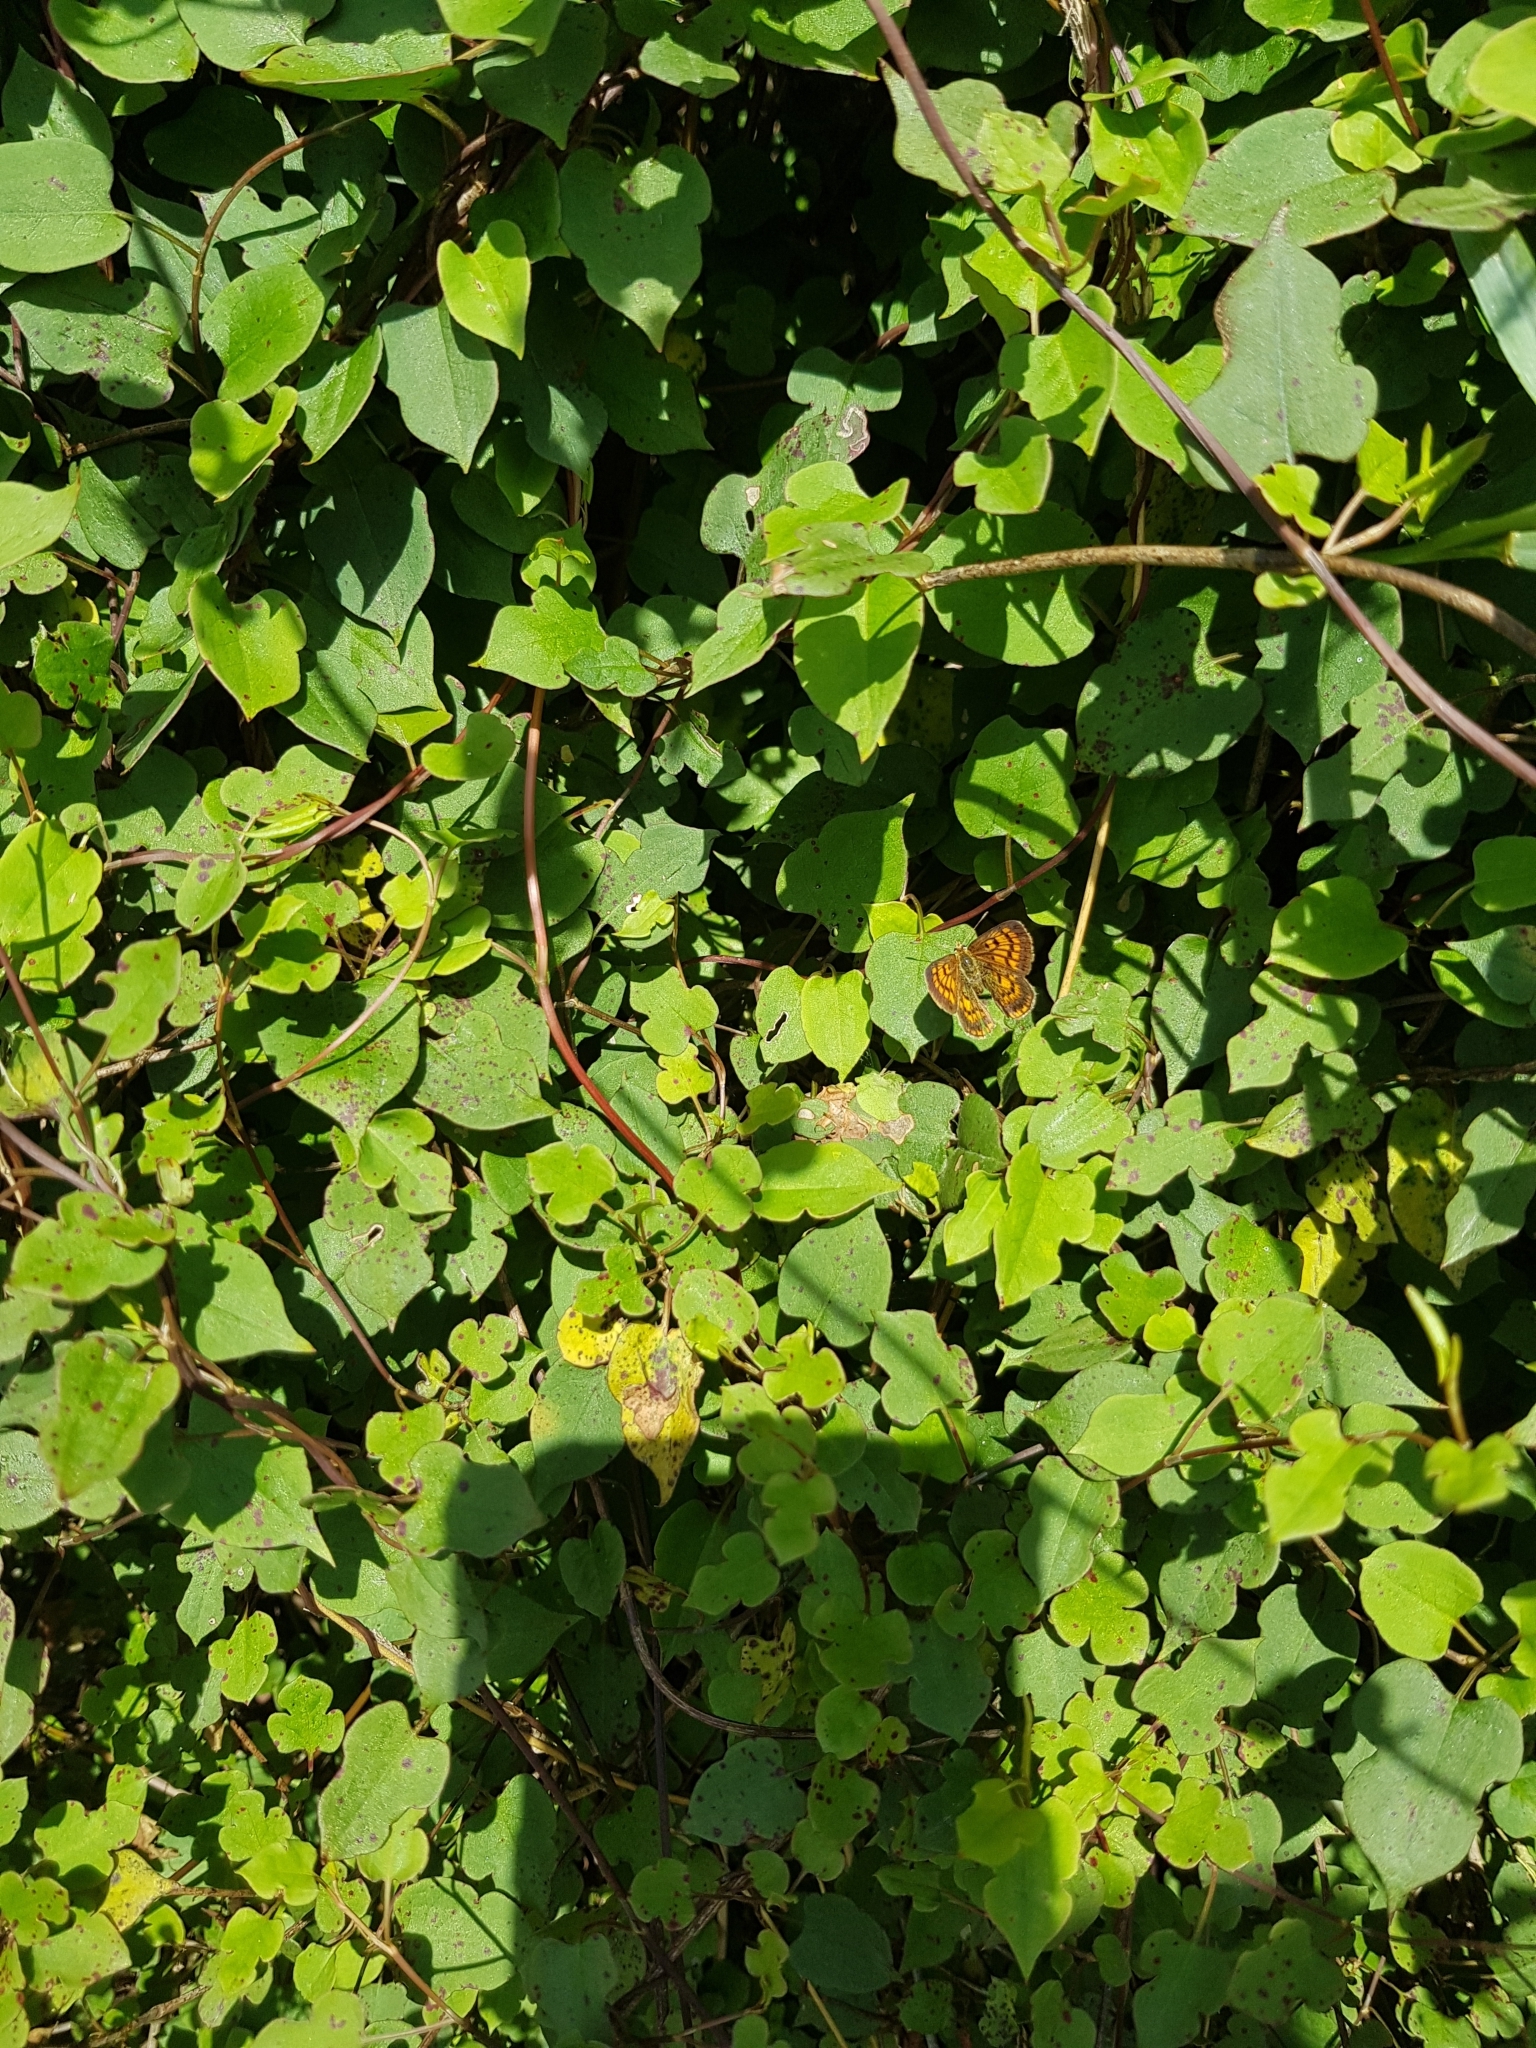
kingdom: Plantae
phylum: Tracheophyta
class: Magnoliopsida
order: Caryophyllales
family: Polygonaceae
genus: Muehlenbeckia
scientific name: Muehlenbeckia australis
